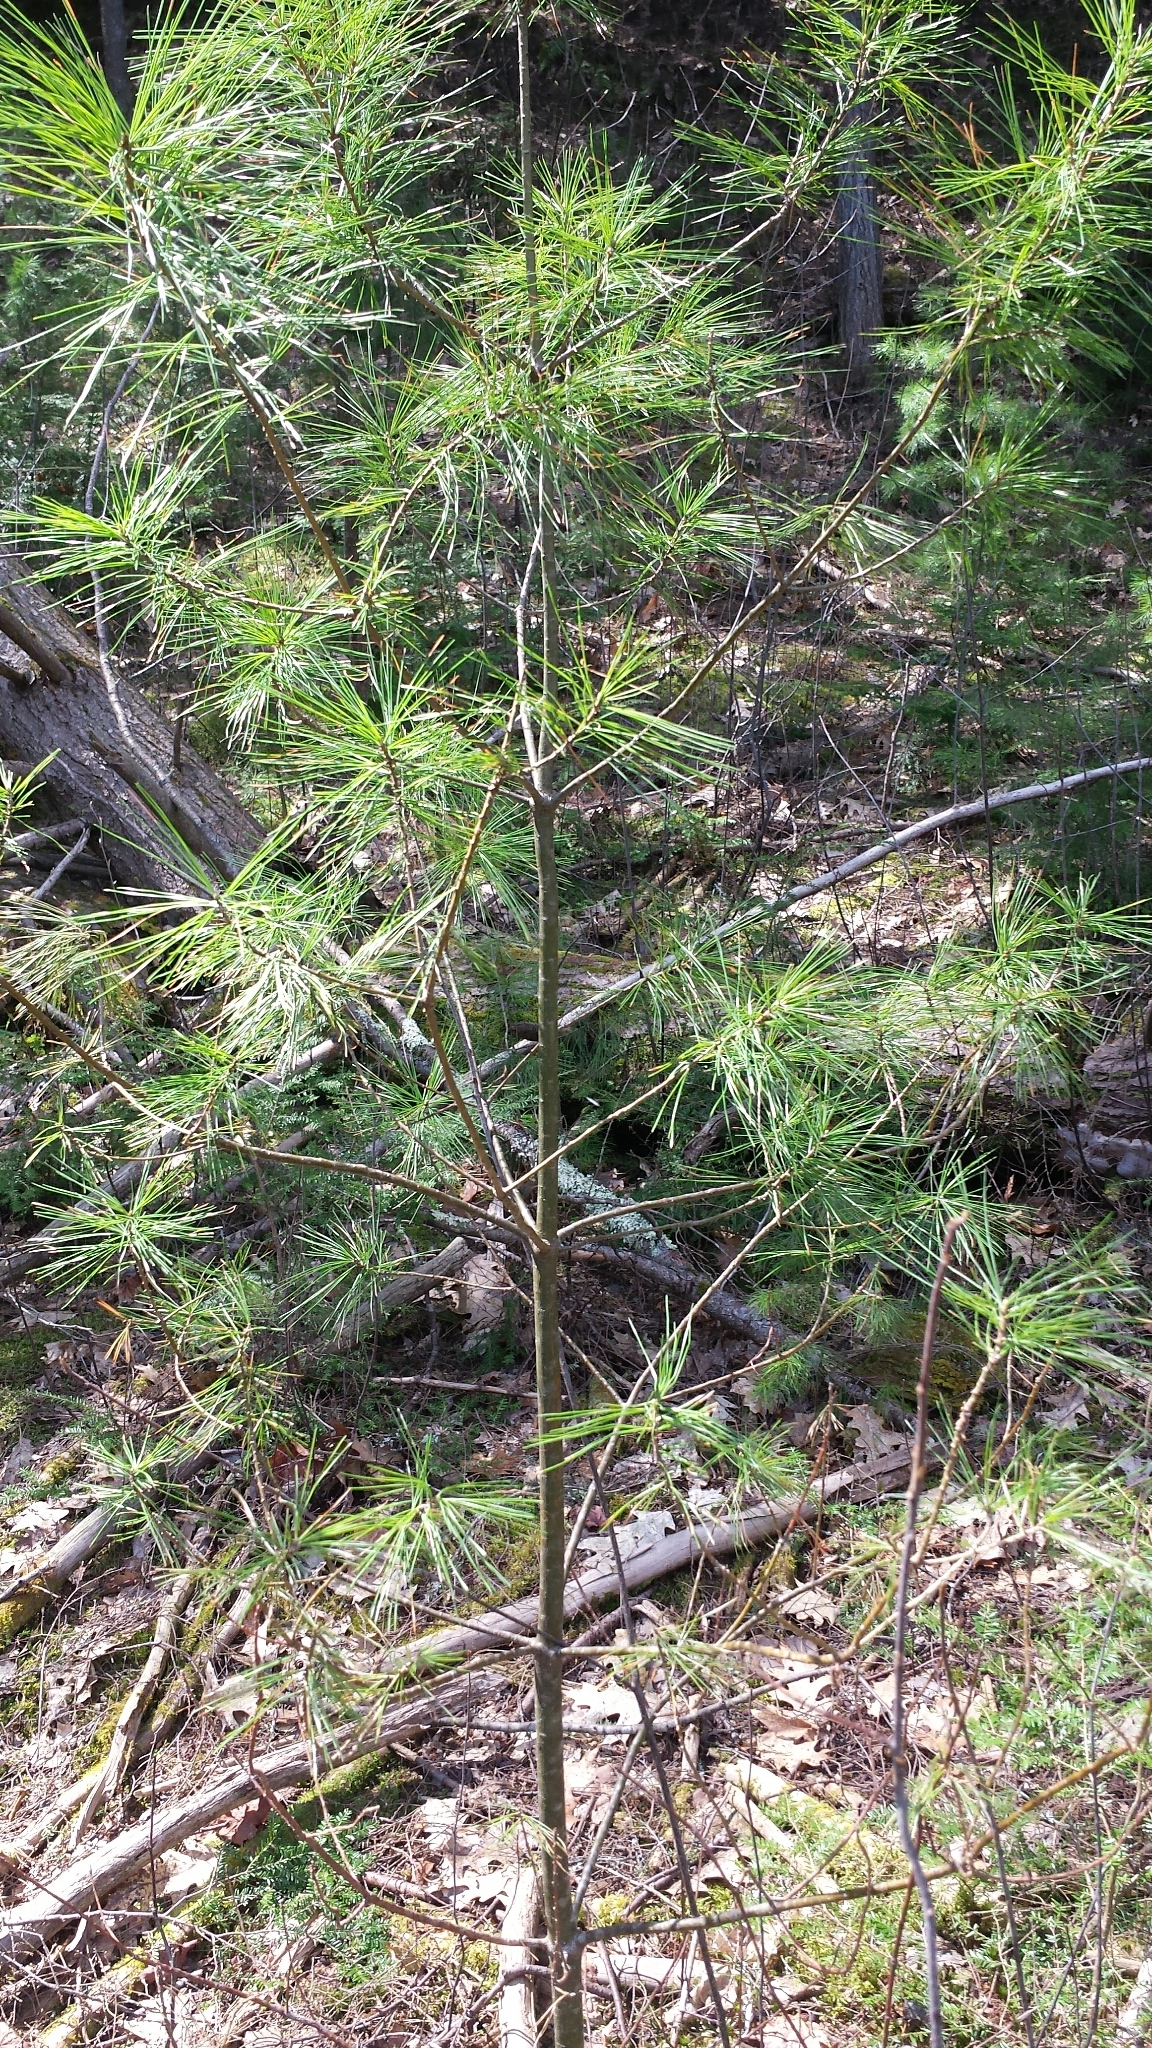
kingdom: Plantae
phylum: Tracheophyta
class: Pinopsida
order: Pinales
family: Pinaceae
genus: Pinus
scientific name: Pinus strobus
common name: Weymouth pine
